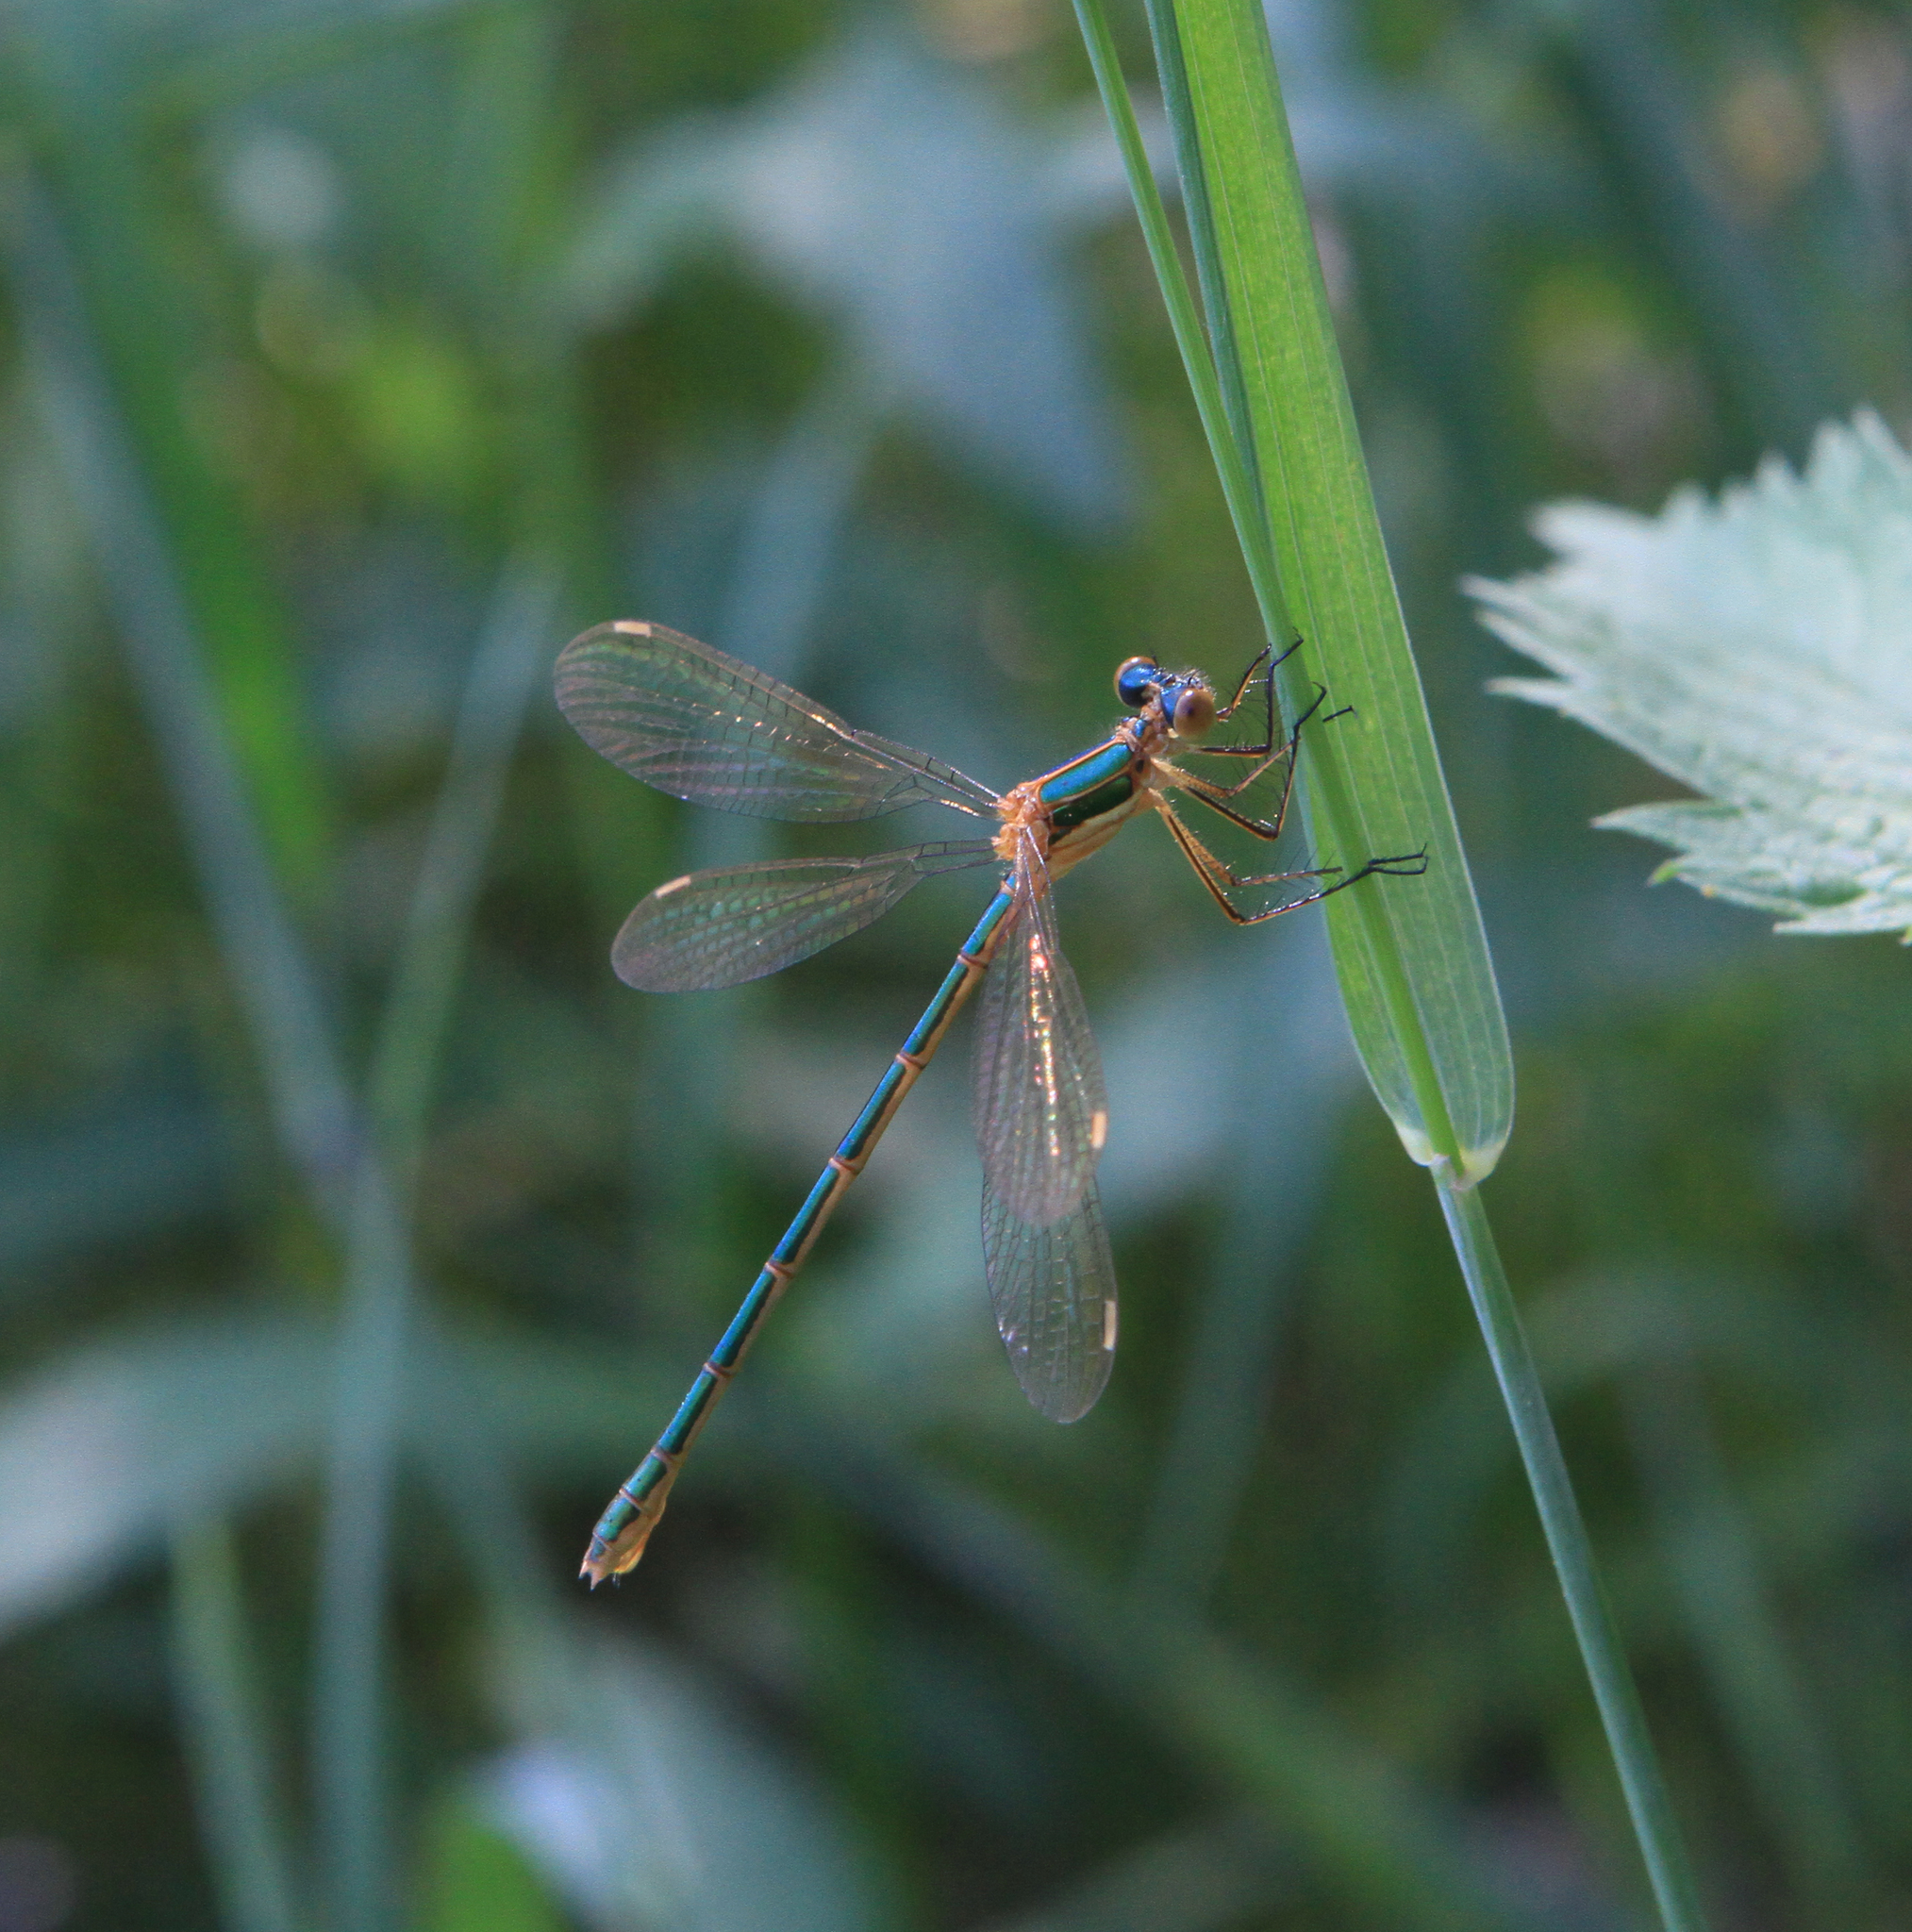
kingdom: Animalia
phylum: Arthropoda
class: Insecta
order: Odonata
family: Lestidae
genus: Lestes
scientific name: Lestes sponsa
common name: Common spreadwing
